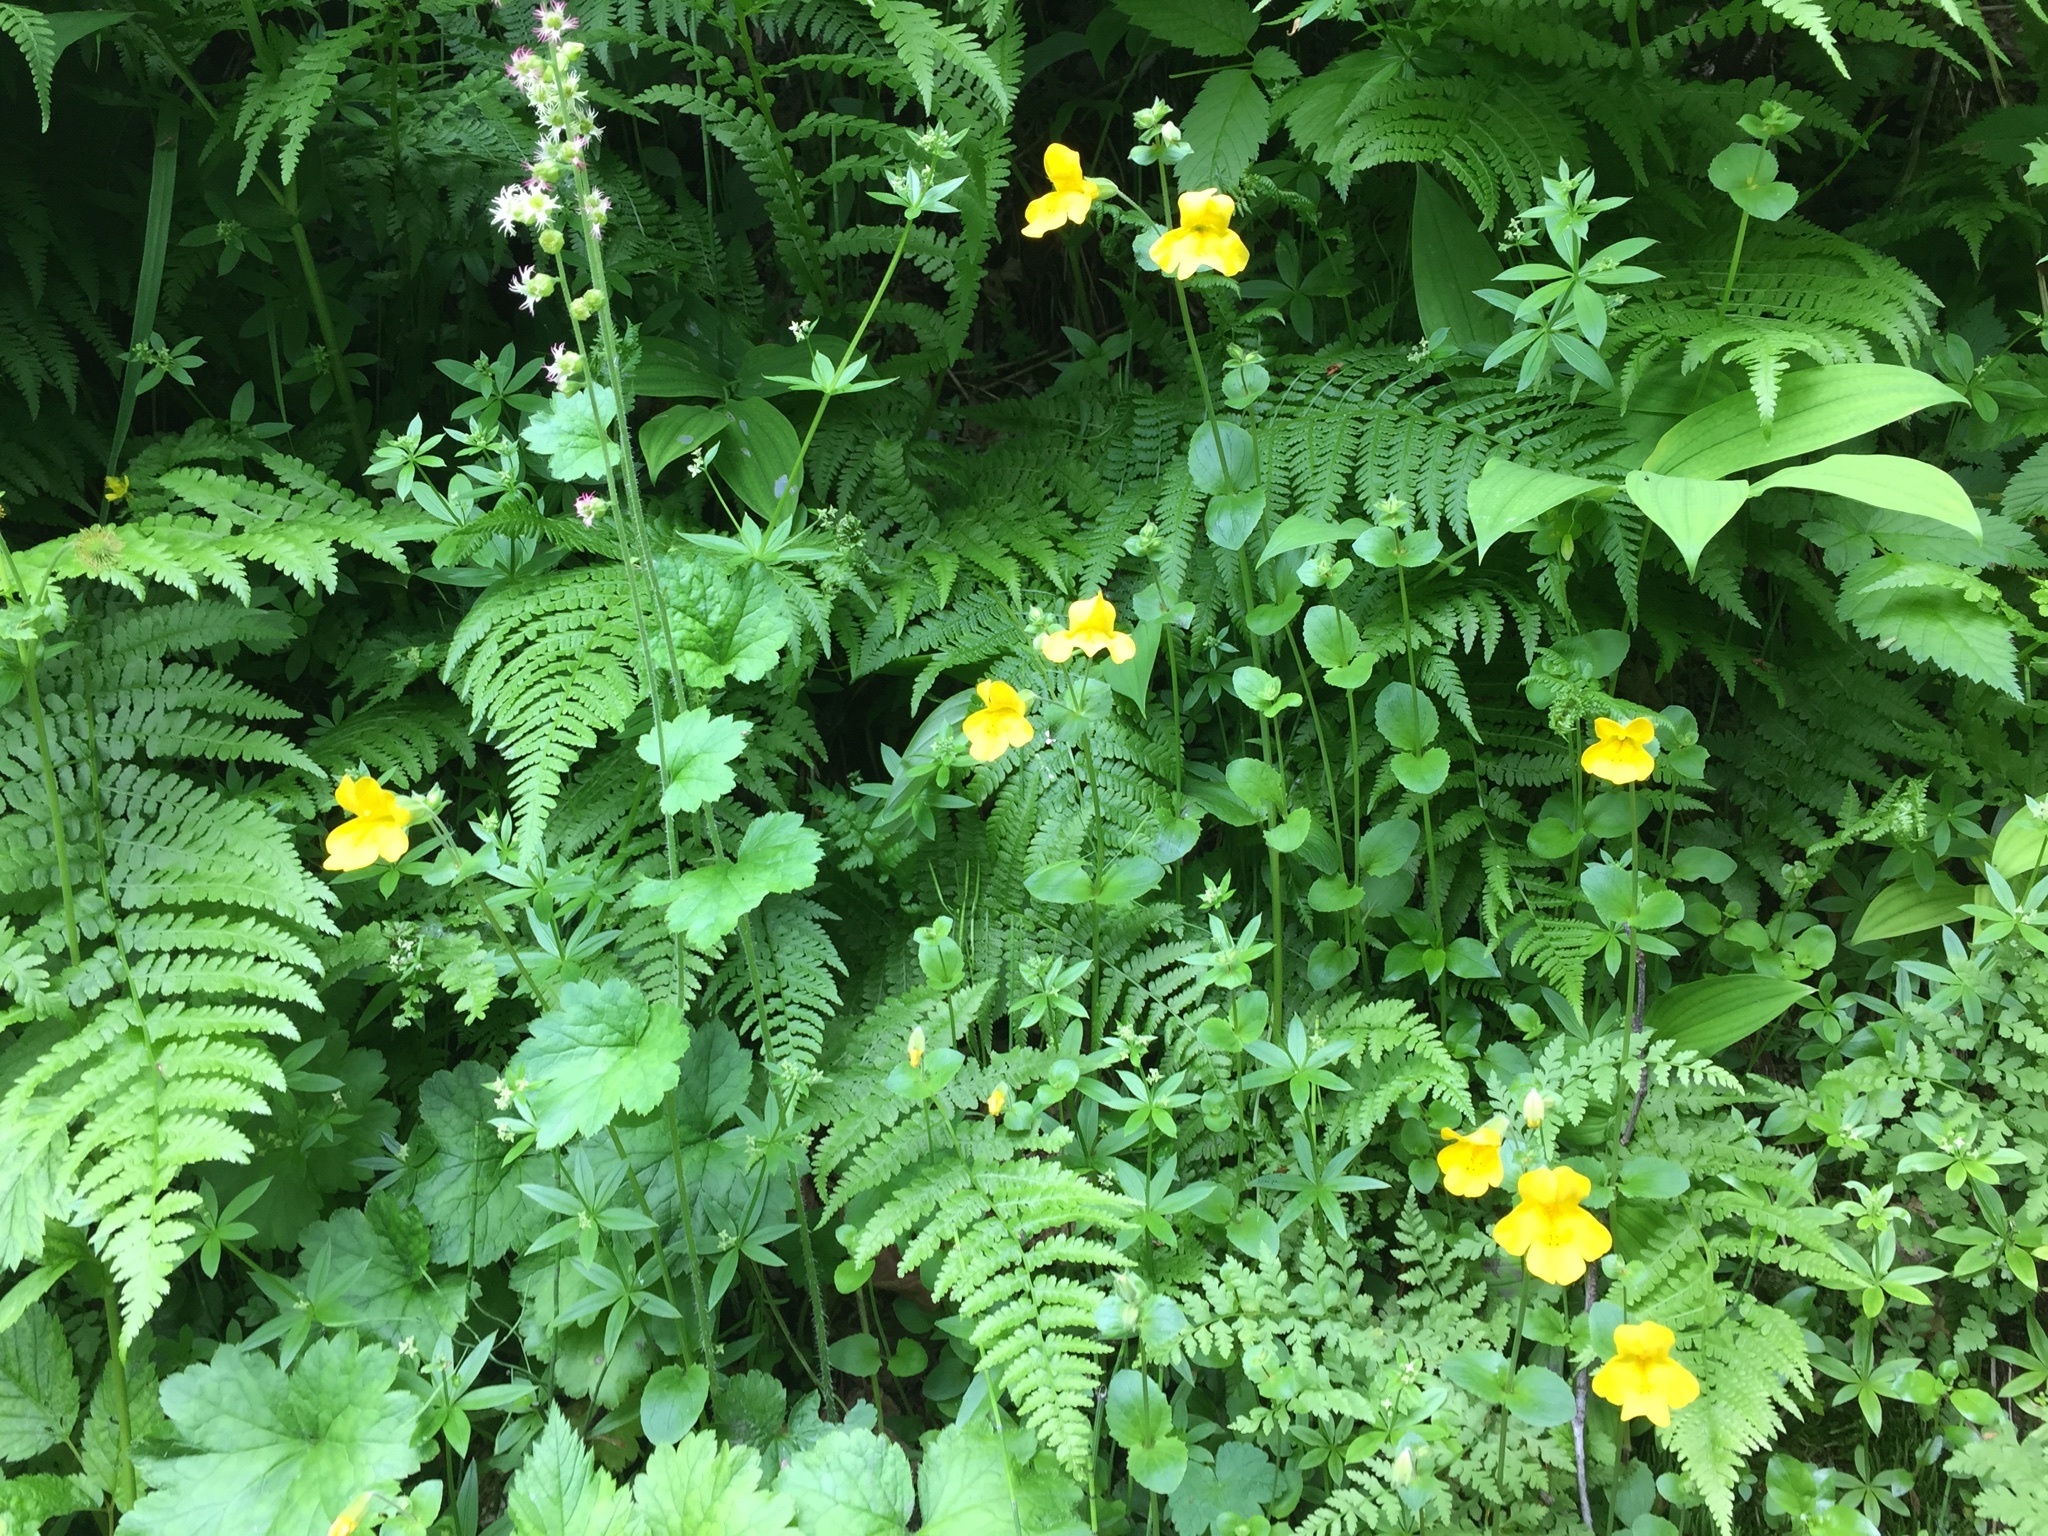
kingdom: Plantae
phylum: Tracheophyta
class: Magnoliopsida
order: Lamiales
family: Phrymaceae
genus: Erythranthe
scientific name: Erythranthe guttata
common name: Monkeyflower
